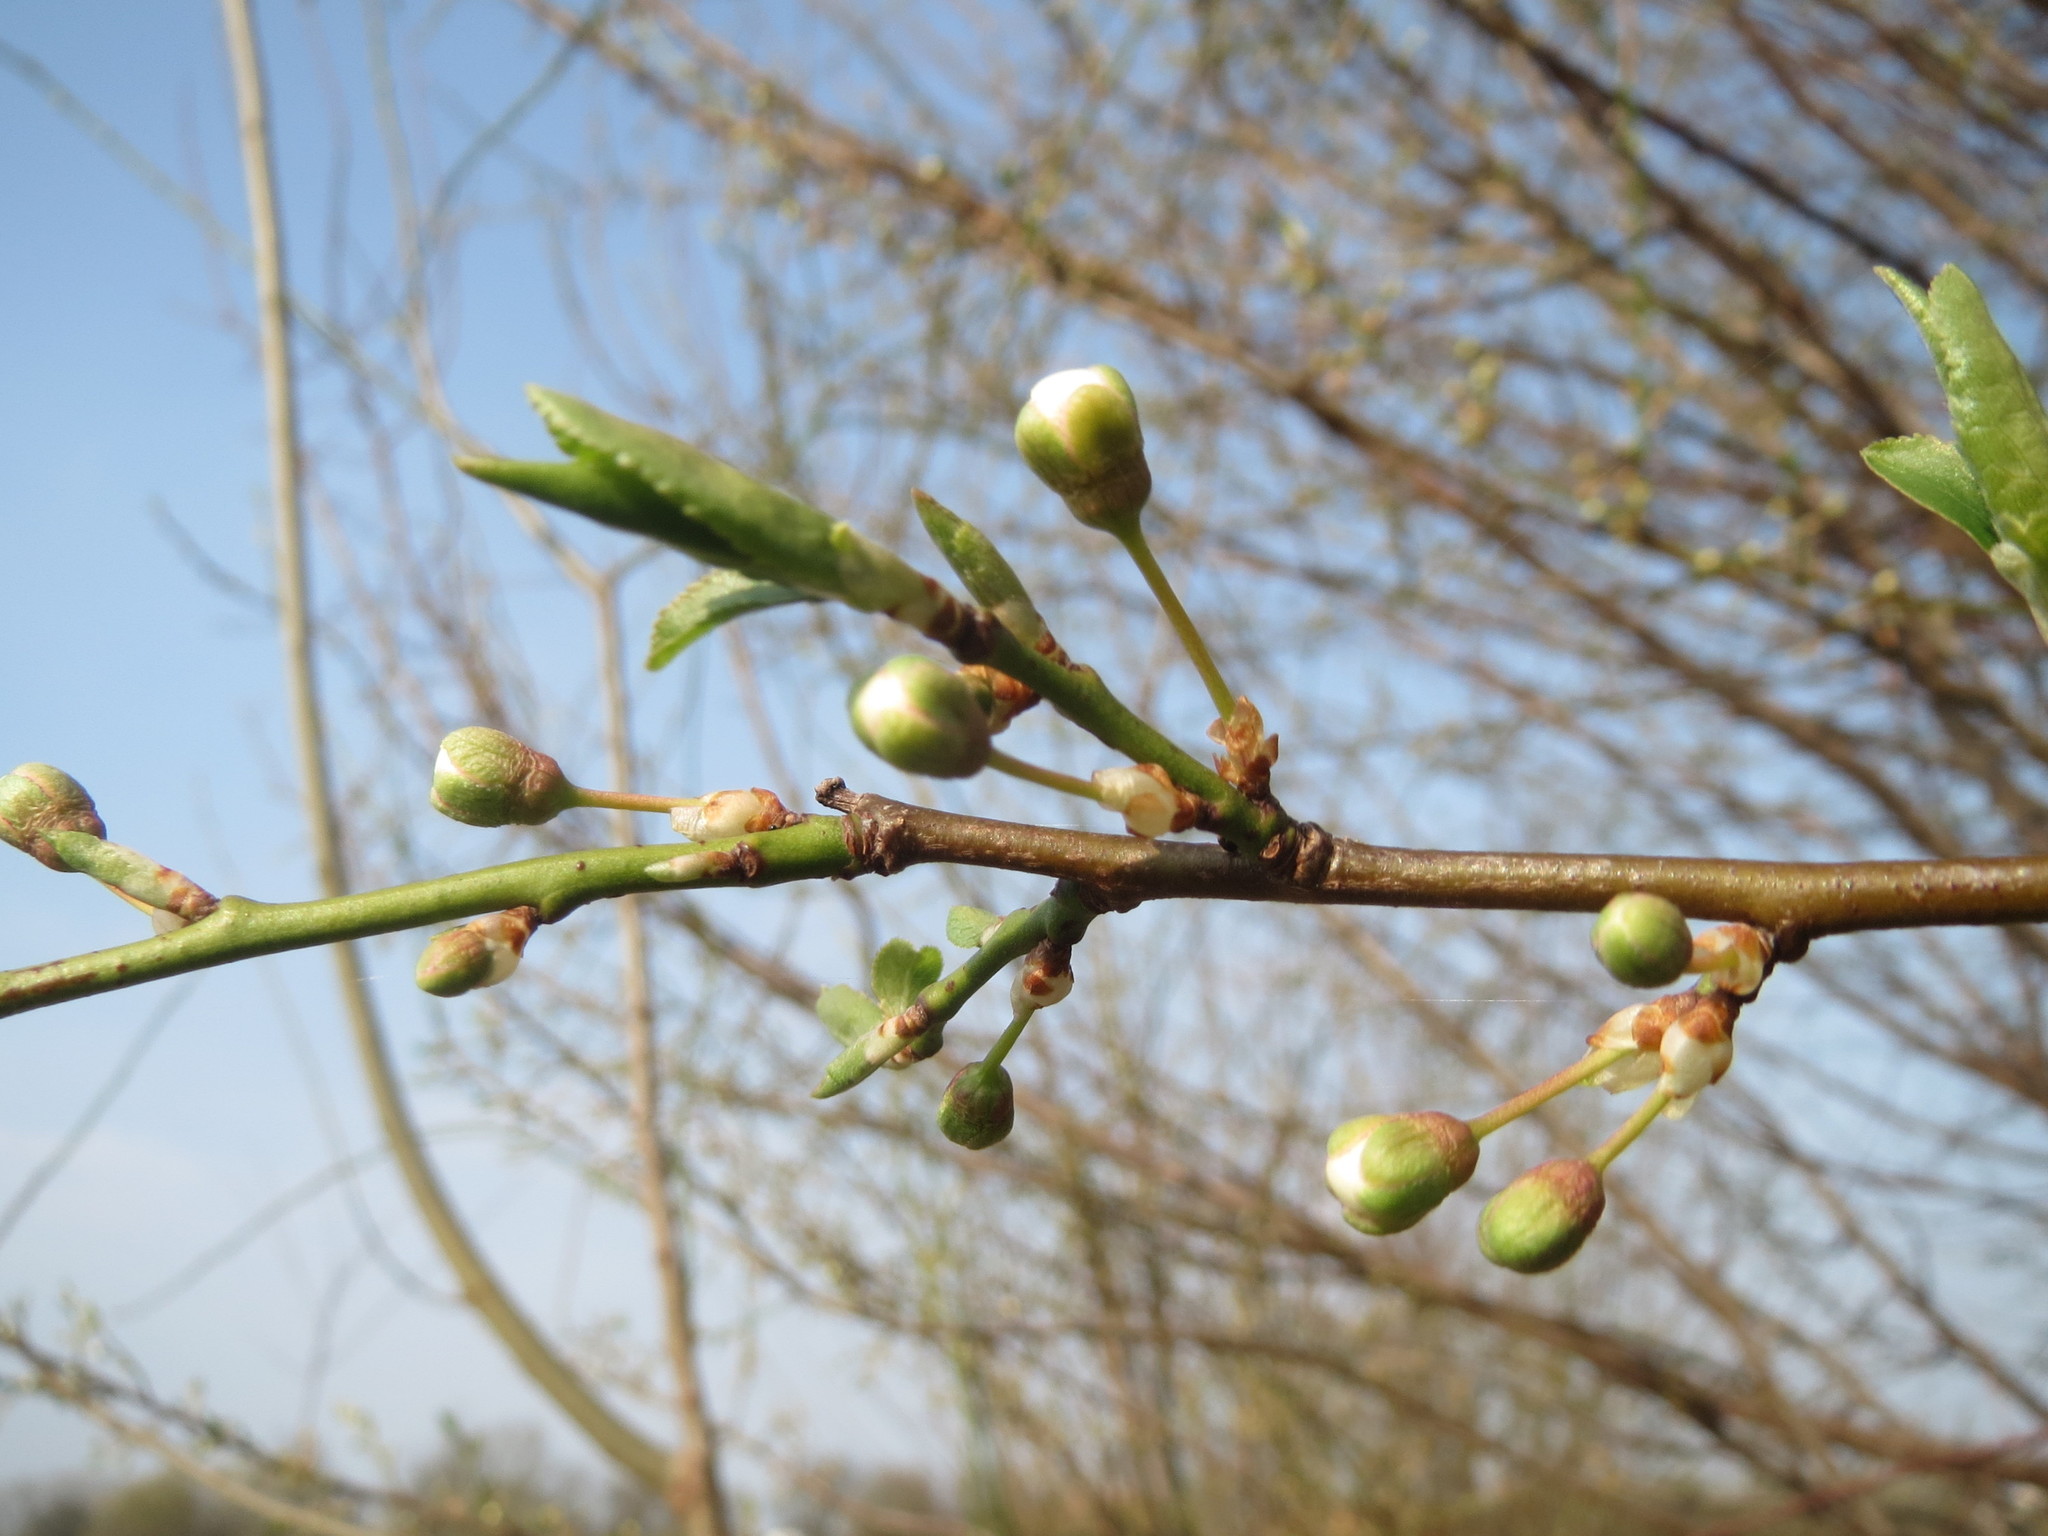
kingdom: Plantae
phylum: Tracheophyta
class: Magnoliopsida
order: Rosales
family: Rosaceae
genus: Prunus
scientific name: Prunus cerasifera
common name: Cherry plum
